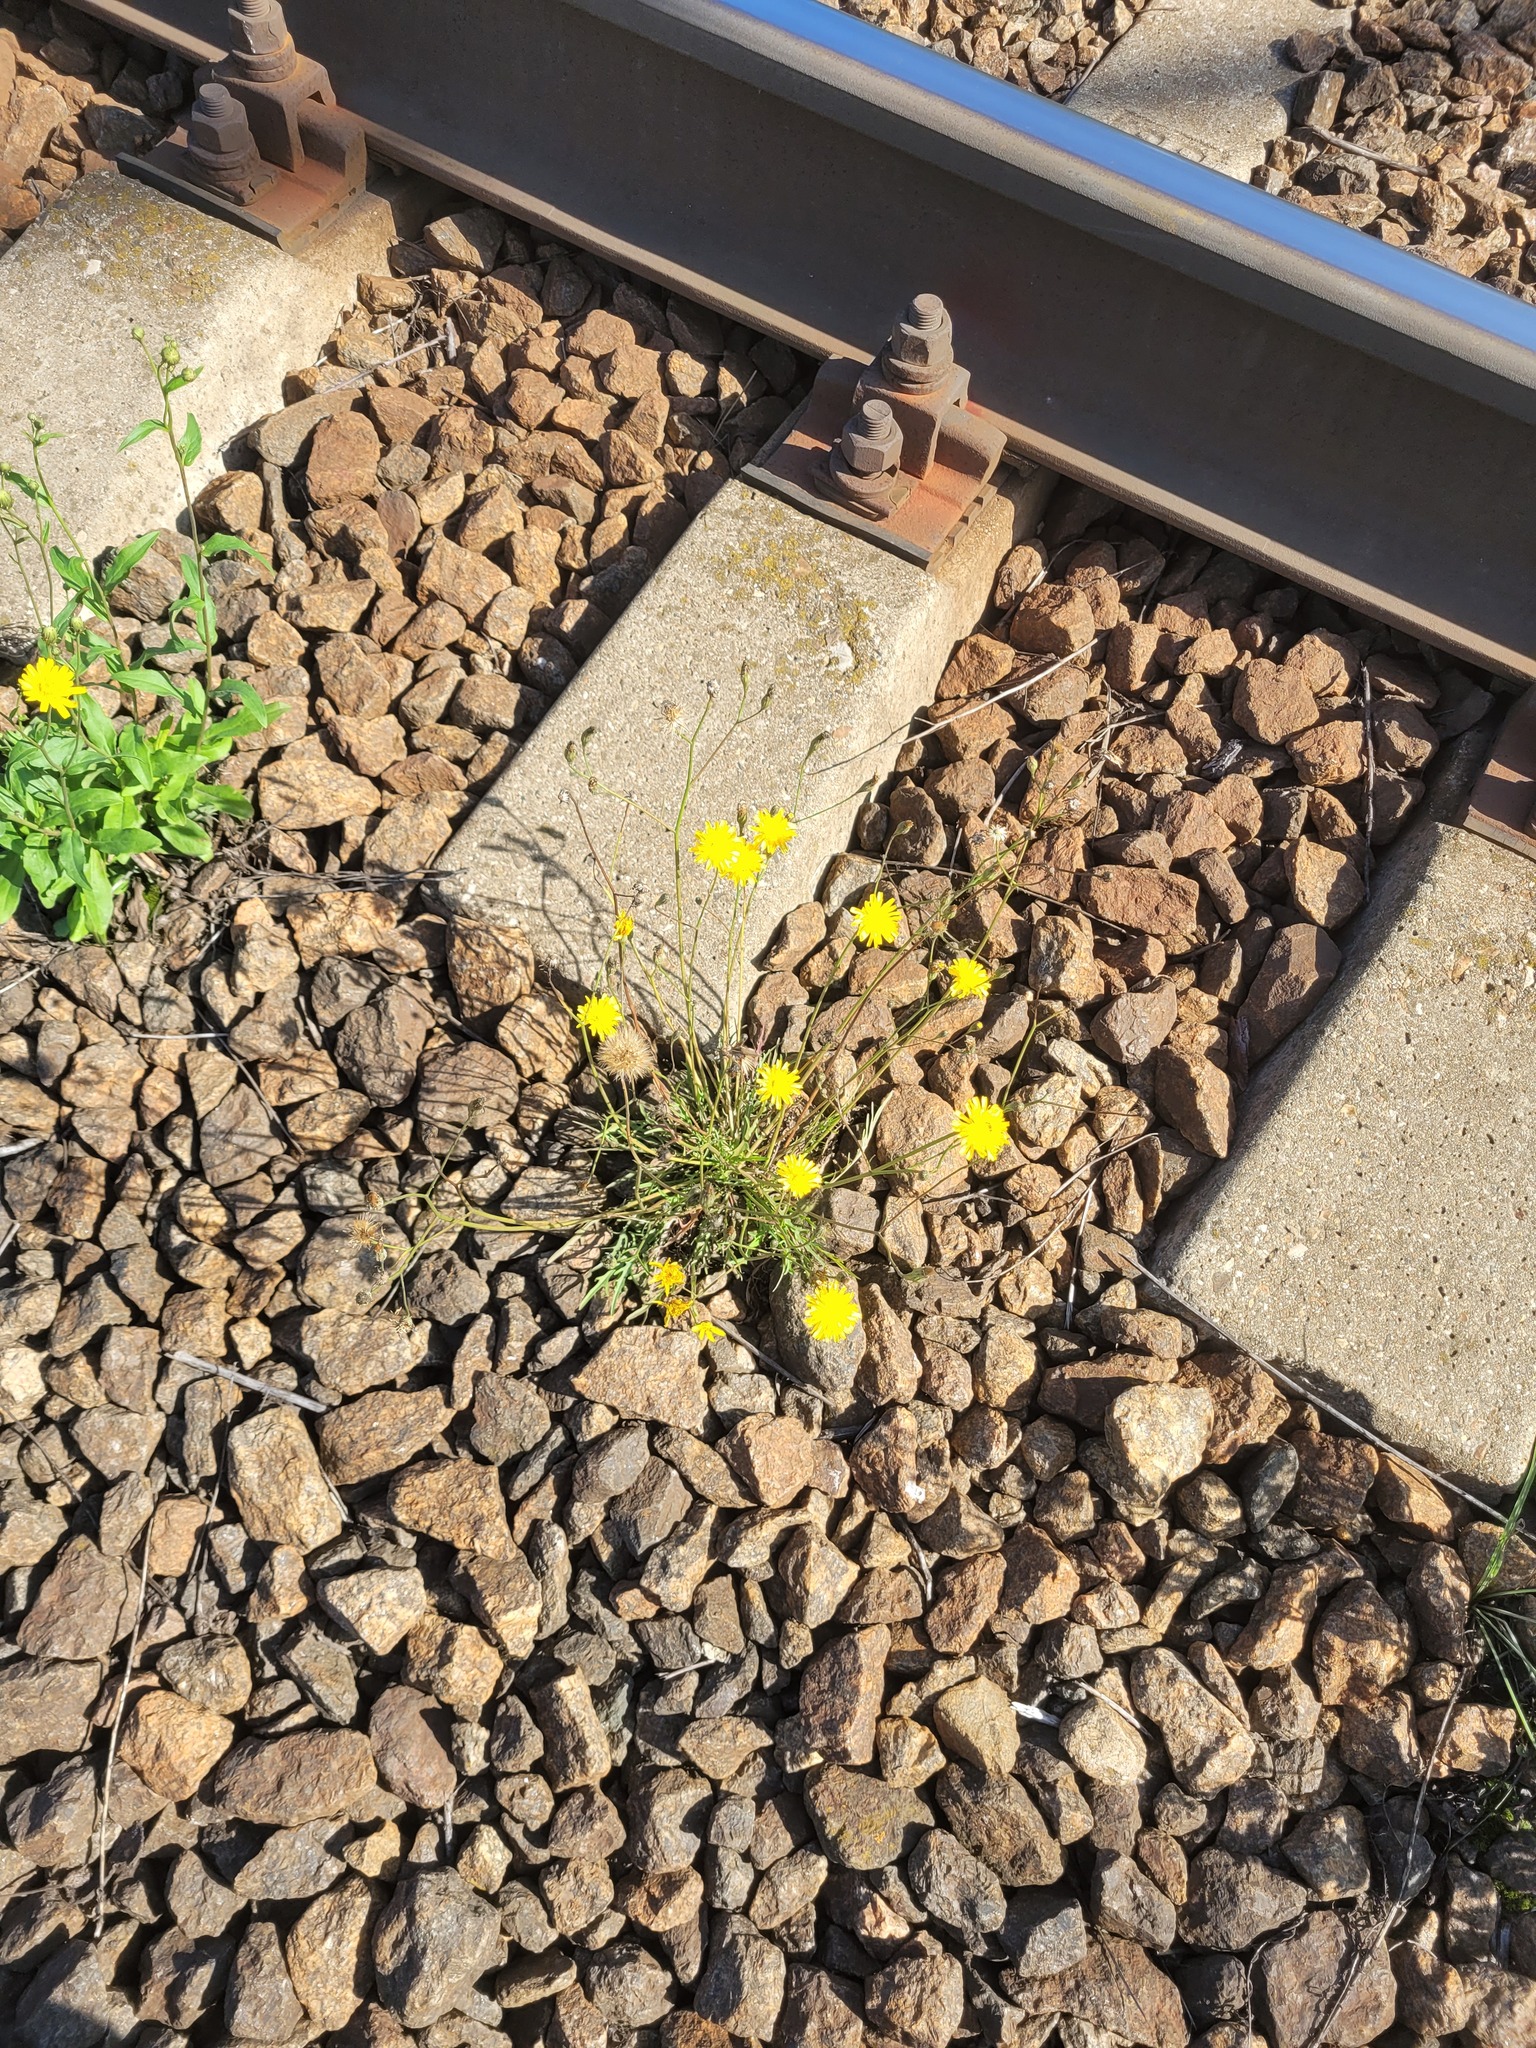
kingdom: Plantae
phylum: Tracheophyta
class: Magnoliopsida
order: Asterales
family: Asteraceae
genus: Scorzoneroides
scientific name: Scorzoneroides autumnalis
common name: Autumn hawkbit
